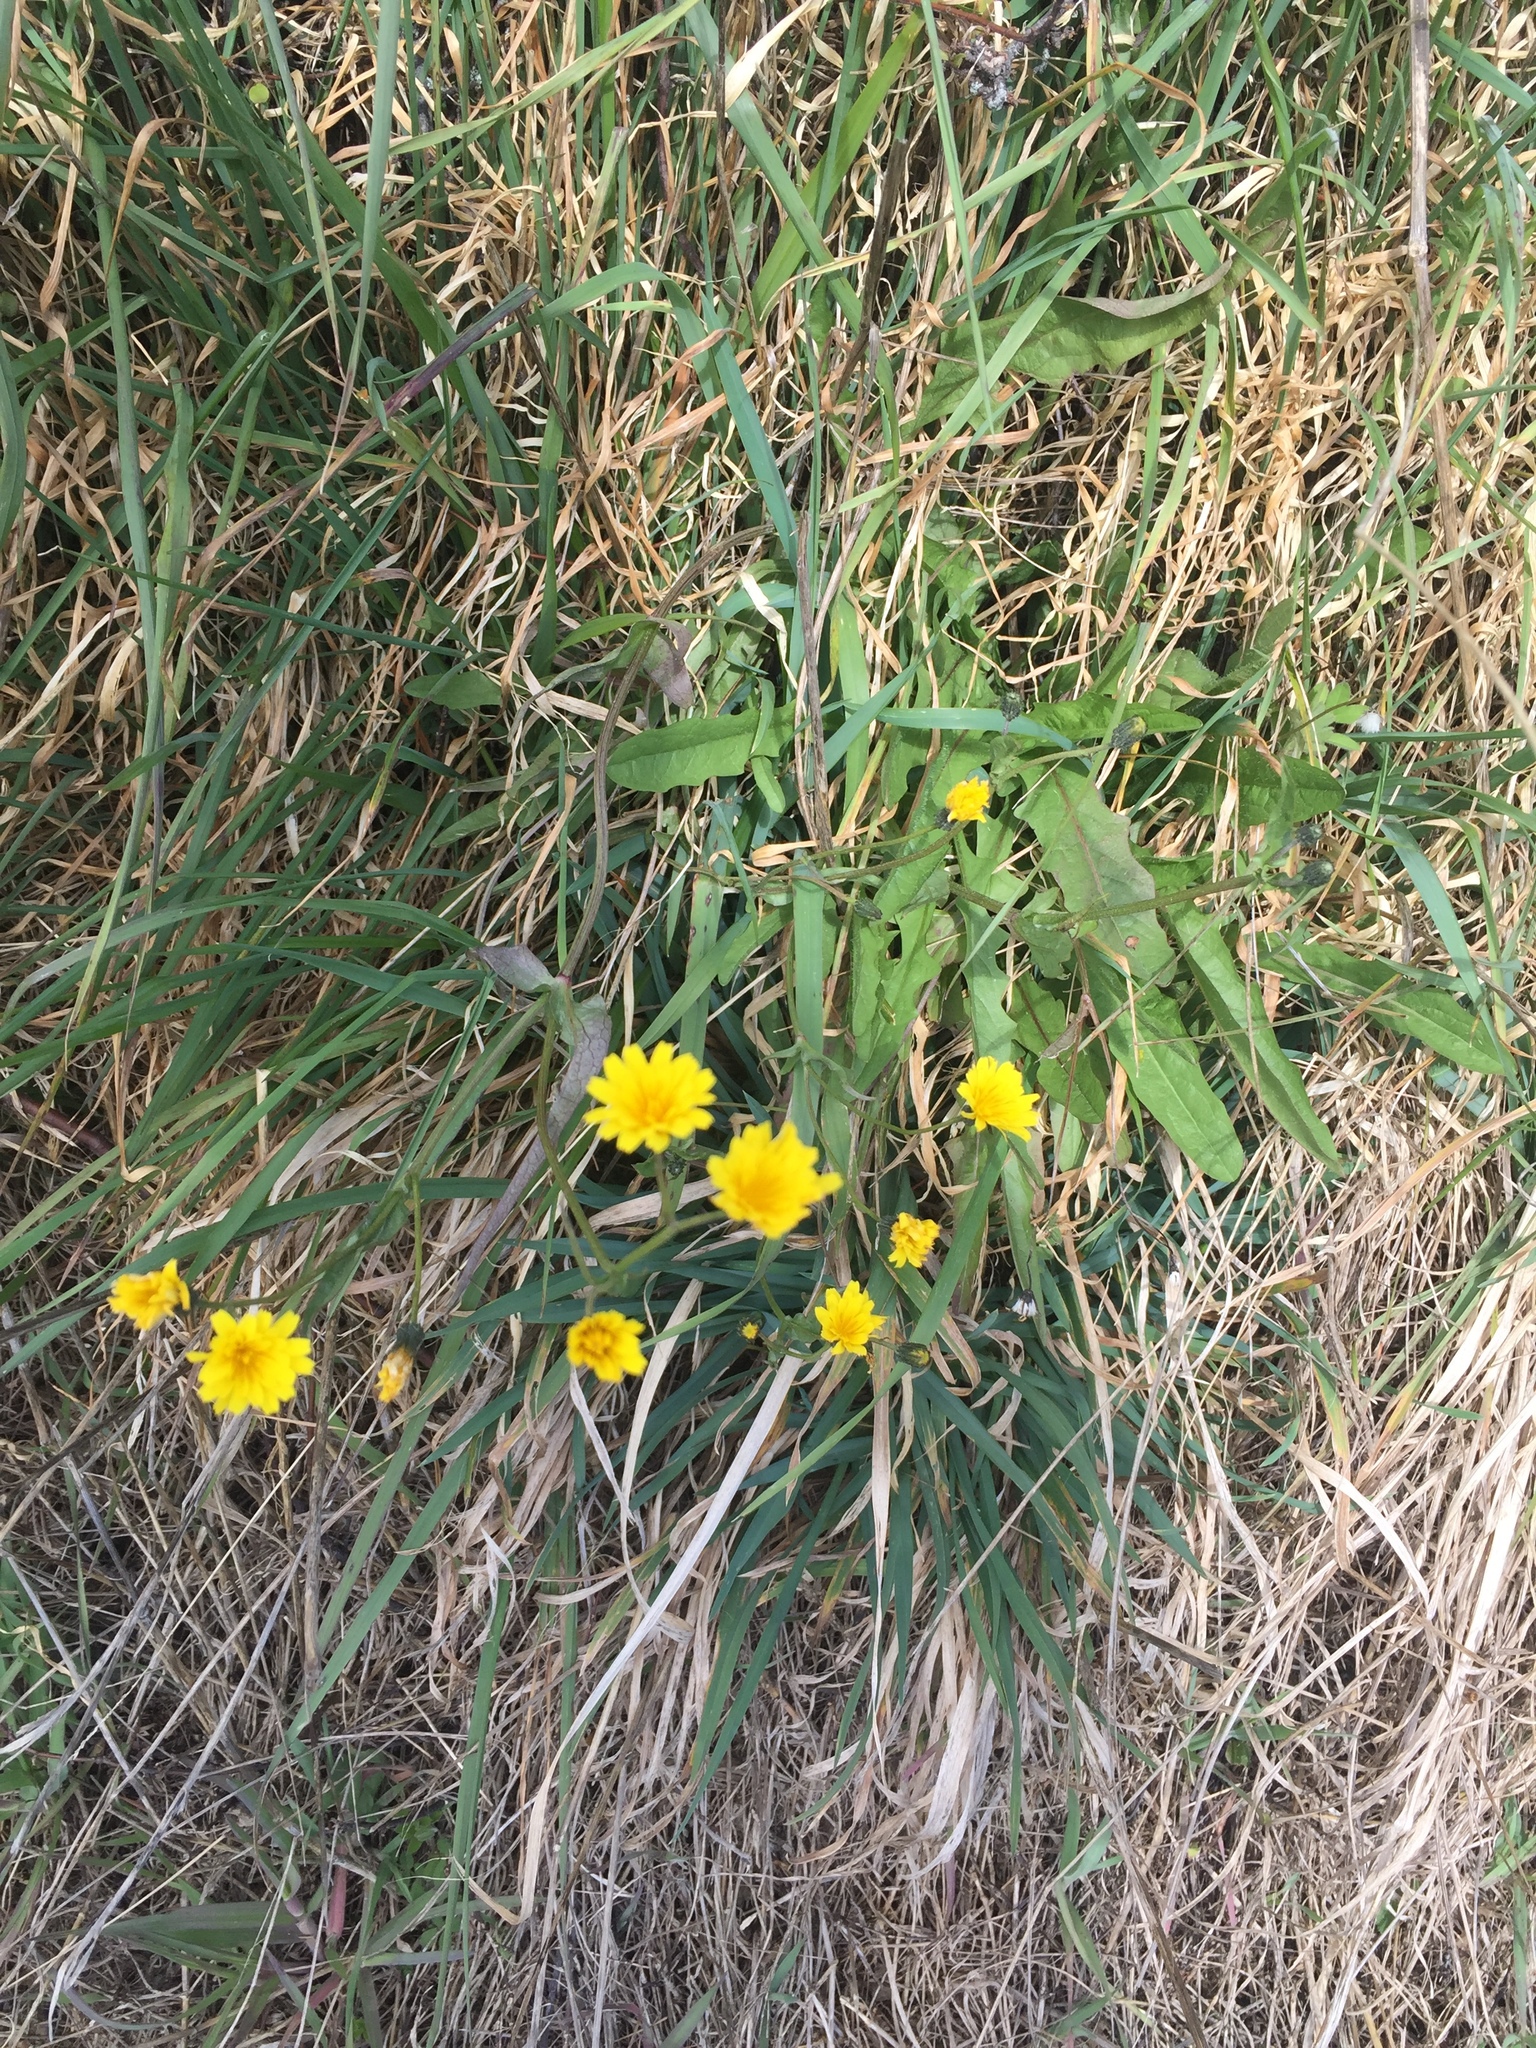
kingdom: Plantae
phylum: Tracheophyta
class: Magnoliopsida
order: Asterales
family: Asteraceae
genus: Crepis
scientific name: Crepis capillaris
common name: Smooth hawksbeard
